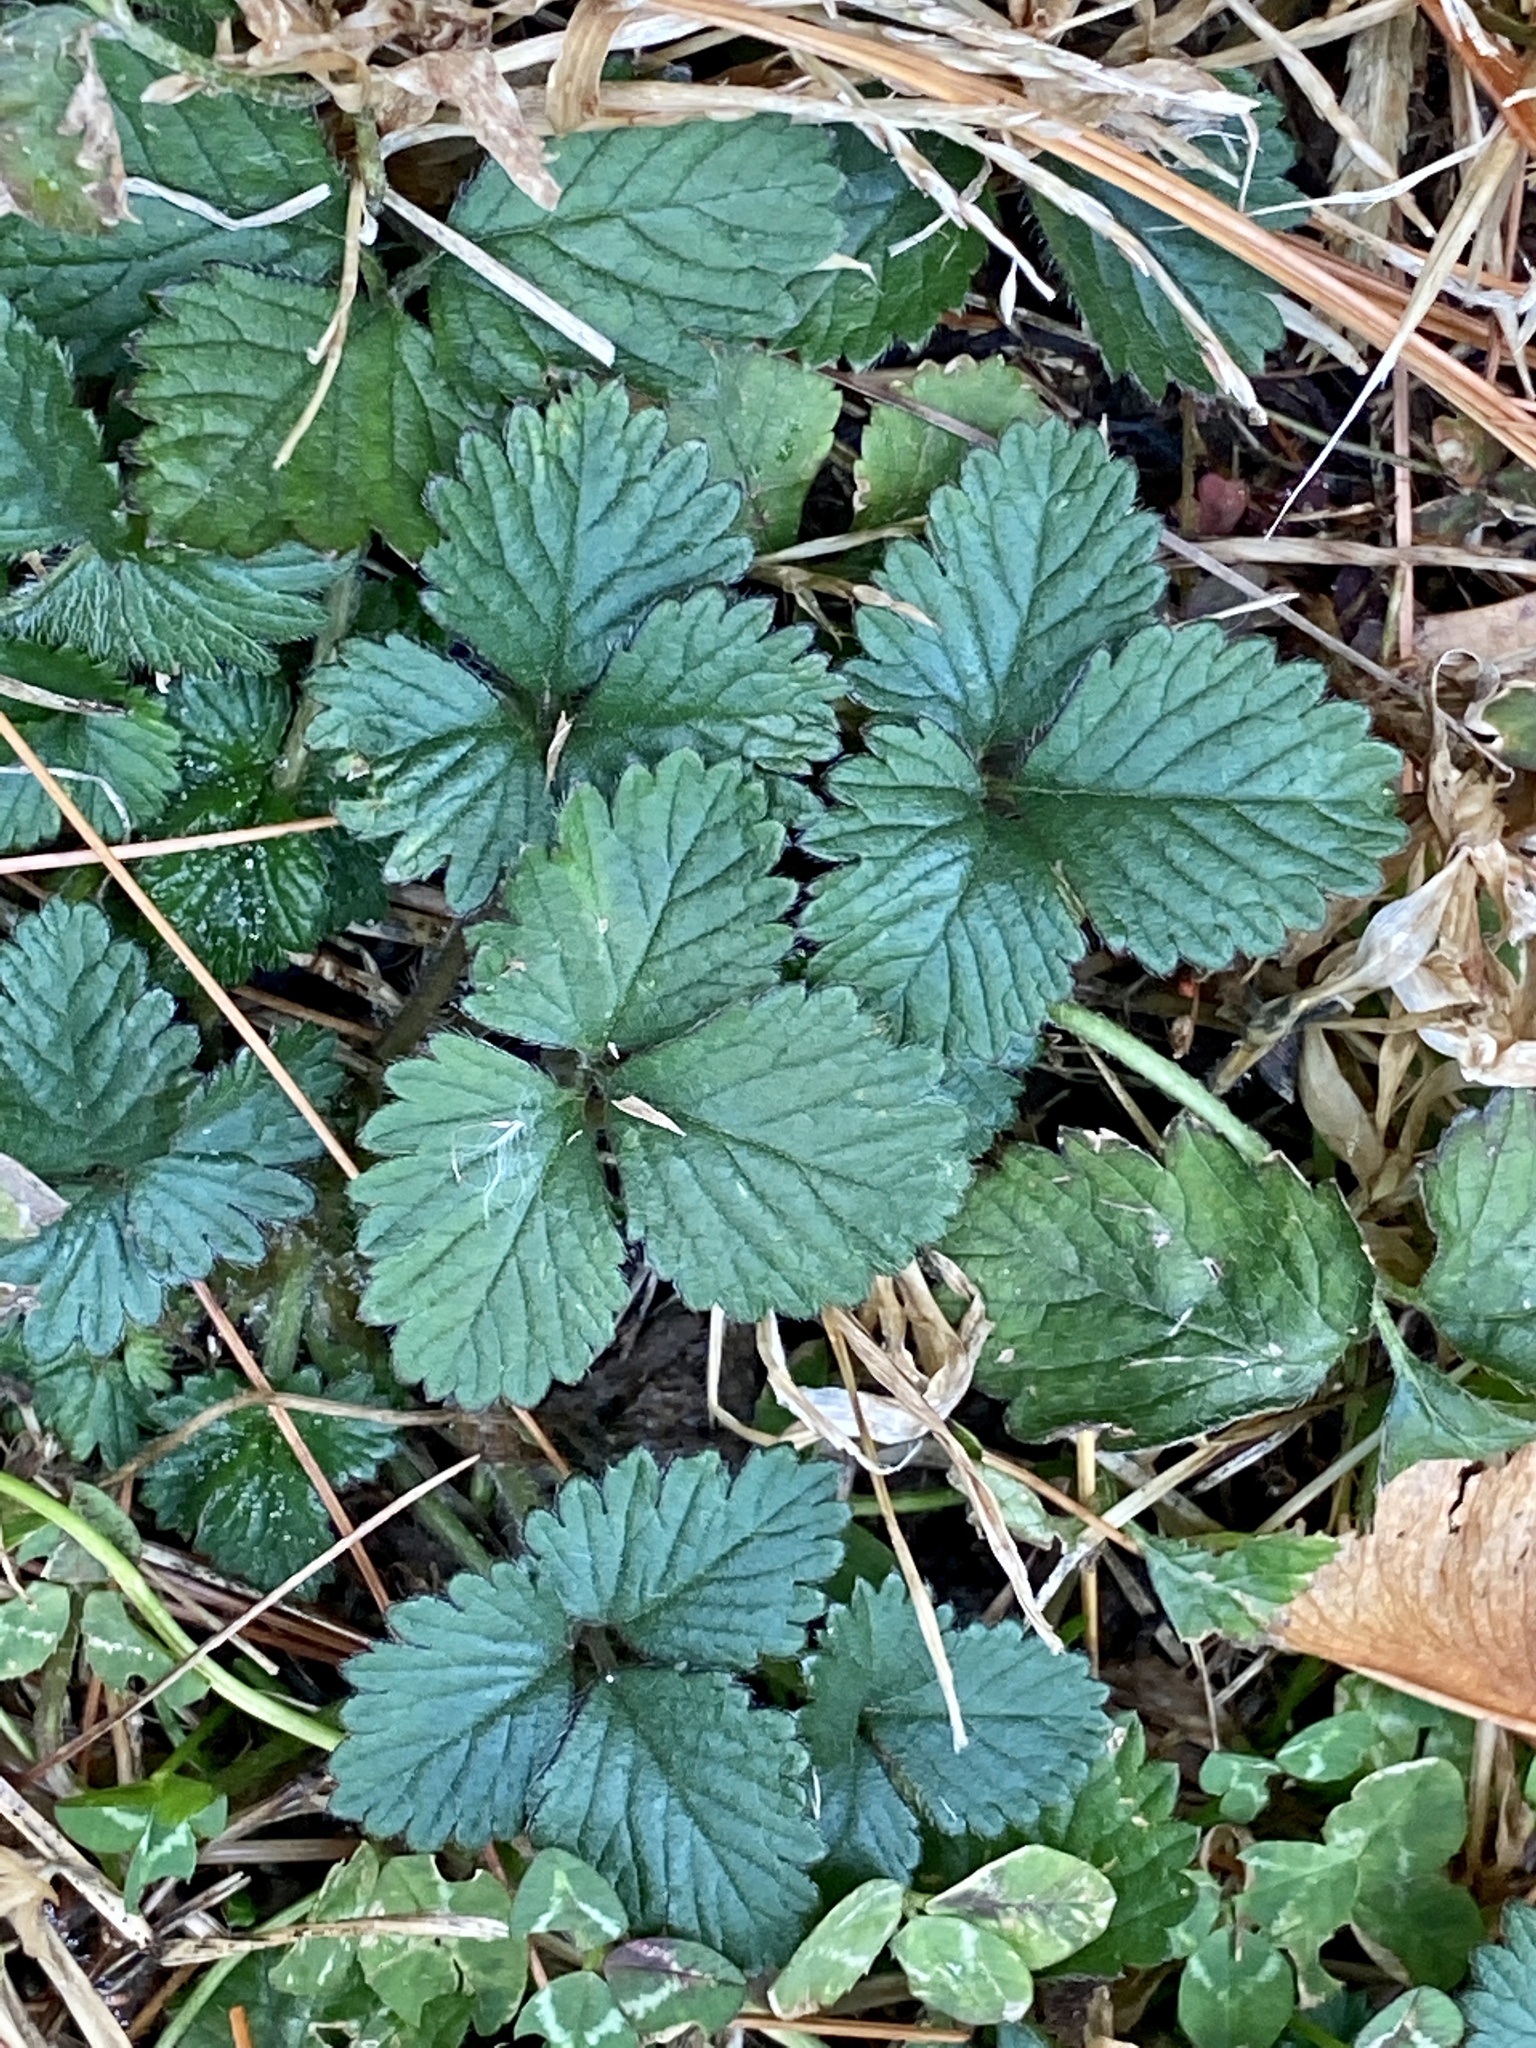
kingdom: Plantae
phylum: Tracheophyta
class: Magnoliopsida
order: Rosales
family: Rosaceae
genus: Potentilla
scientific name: Potentilla indica
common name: Yellow-flowered strawberry
